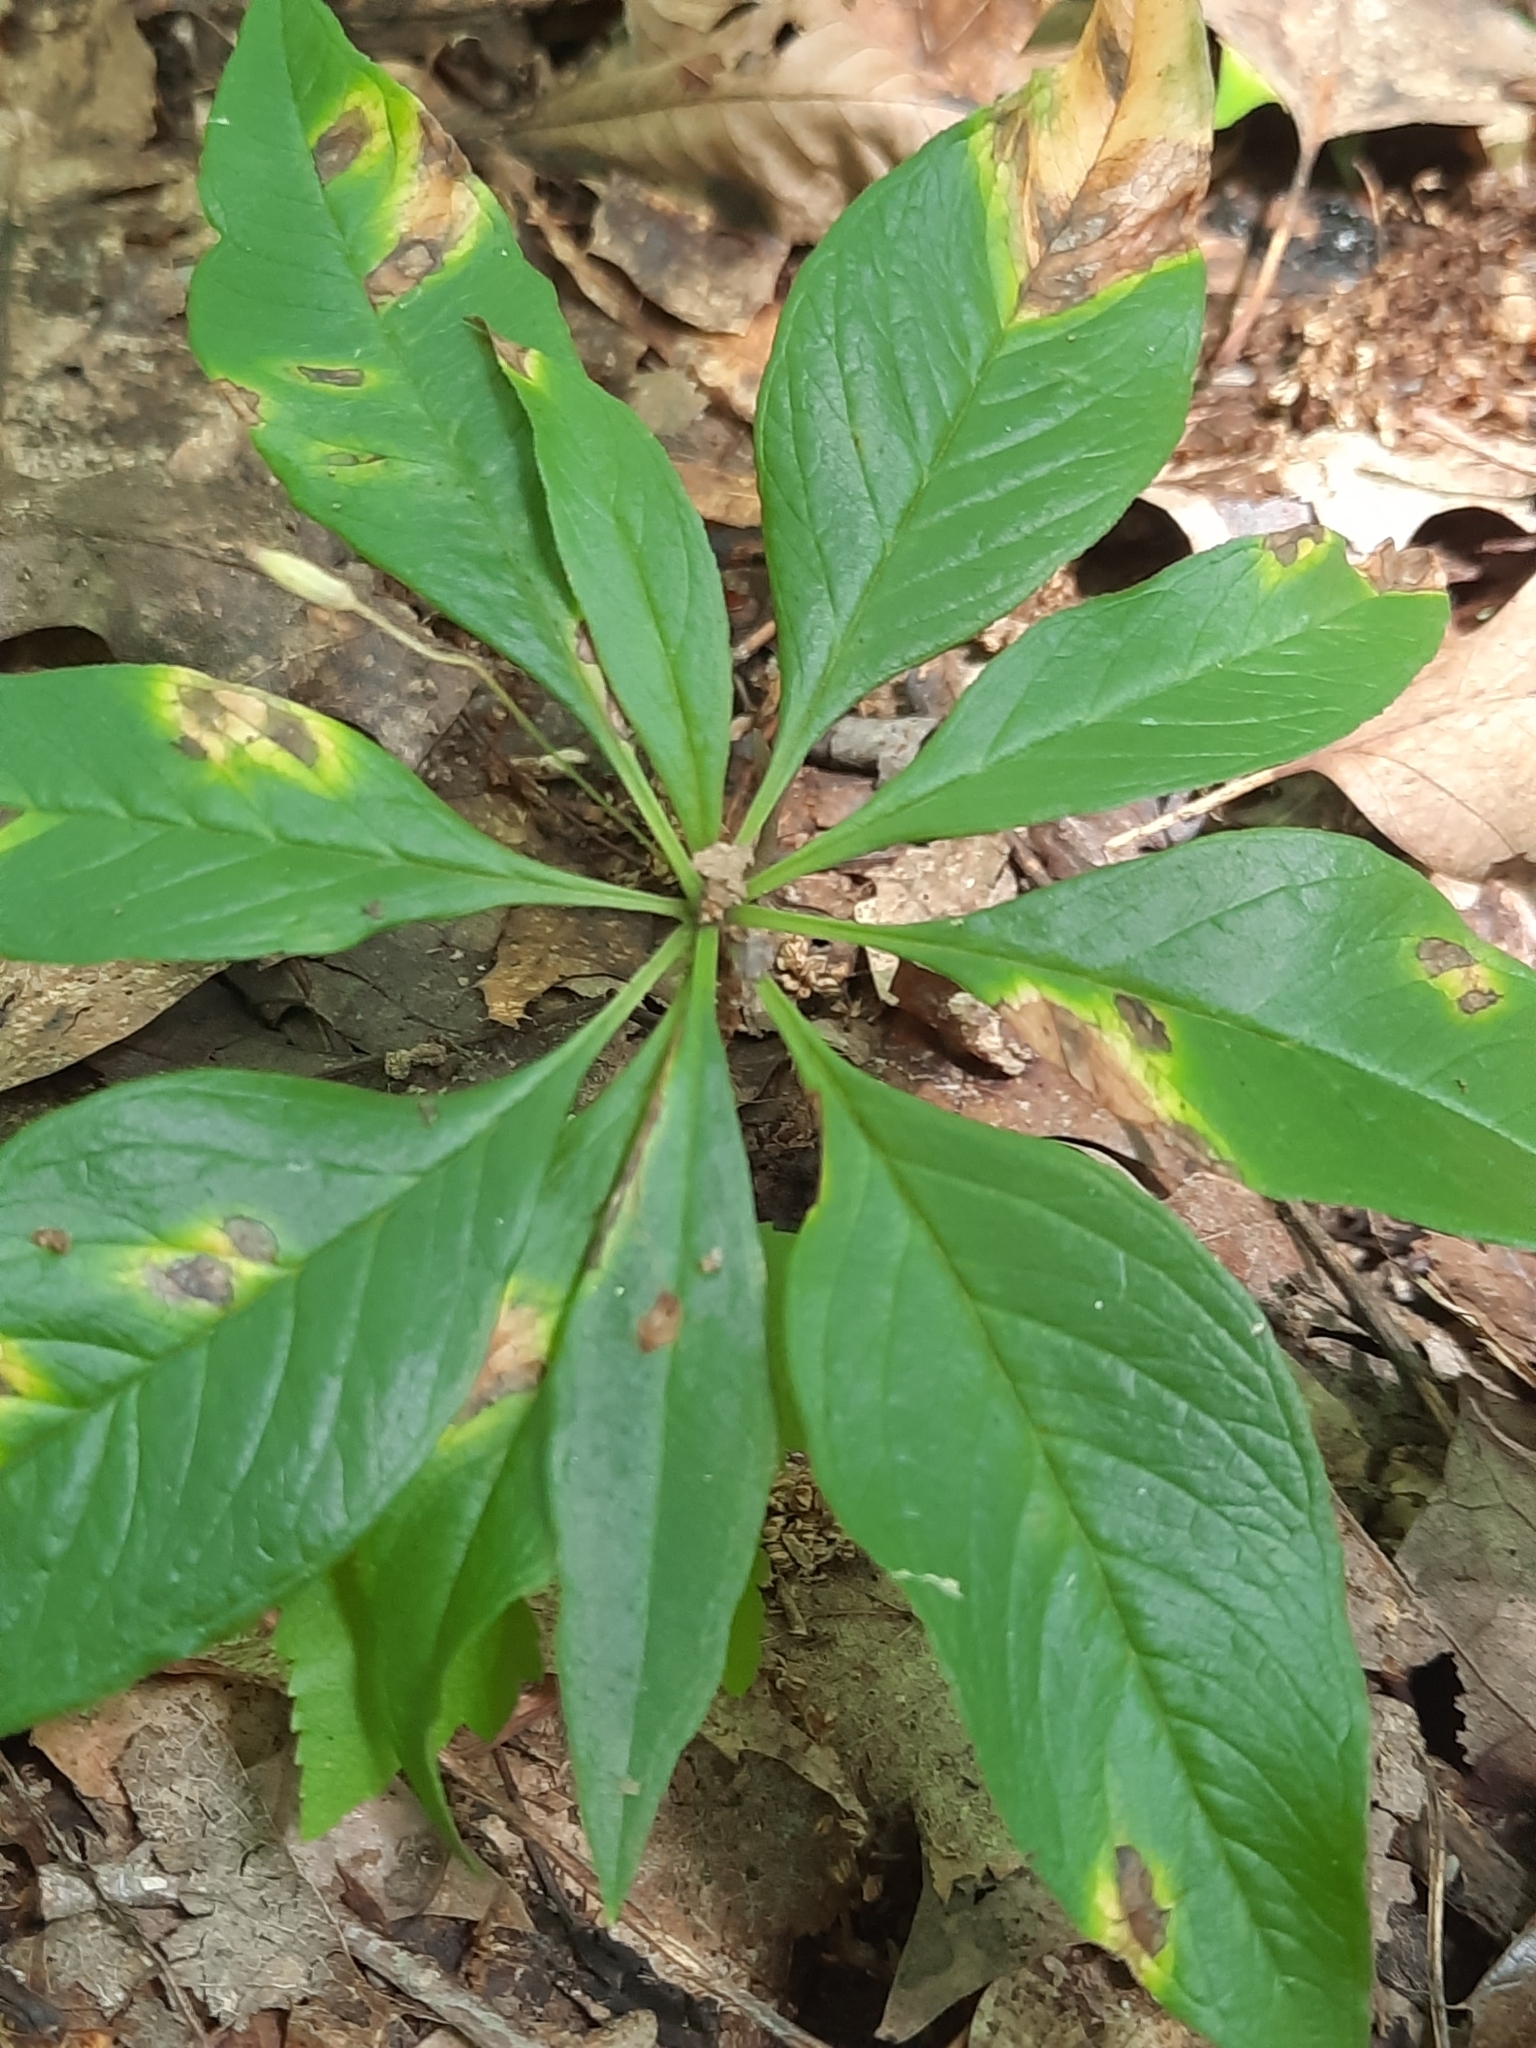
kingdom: Plantae
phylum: Tracheophyta
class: Magnoliopsida
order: Ericales
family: Primulaceae
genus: Lysimachia
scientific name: Lysimachia borealis
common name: American starflower
